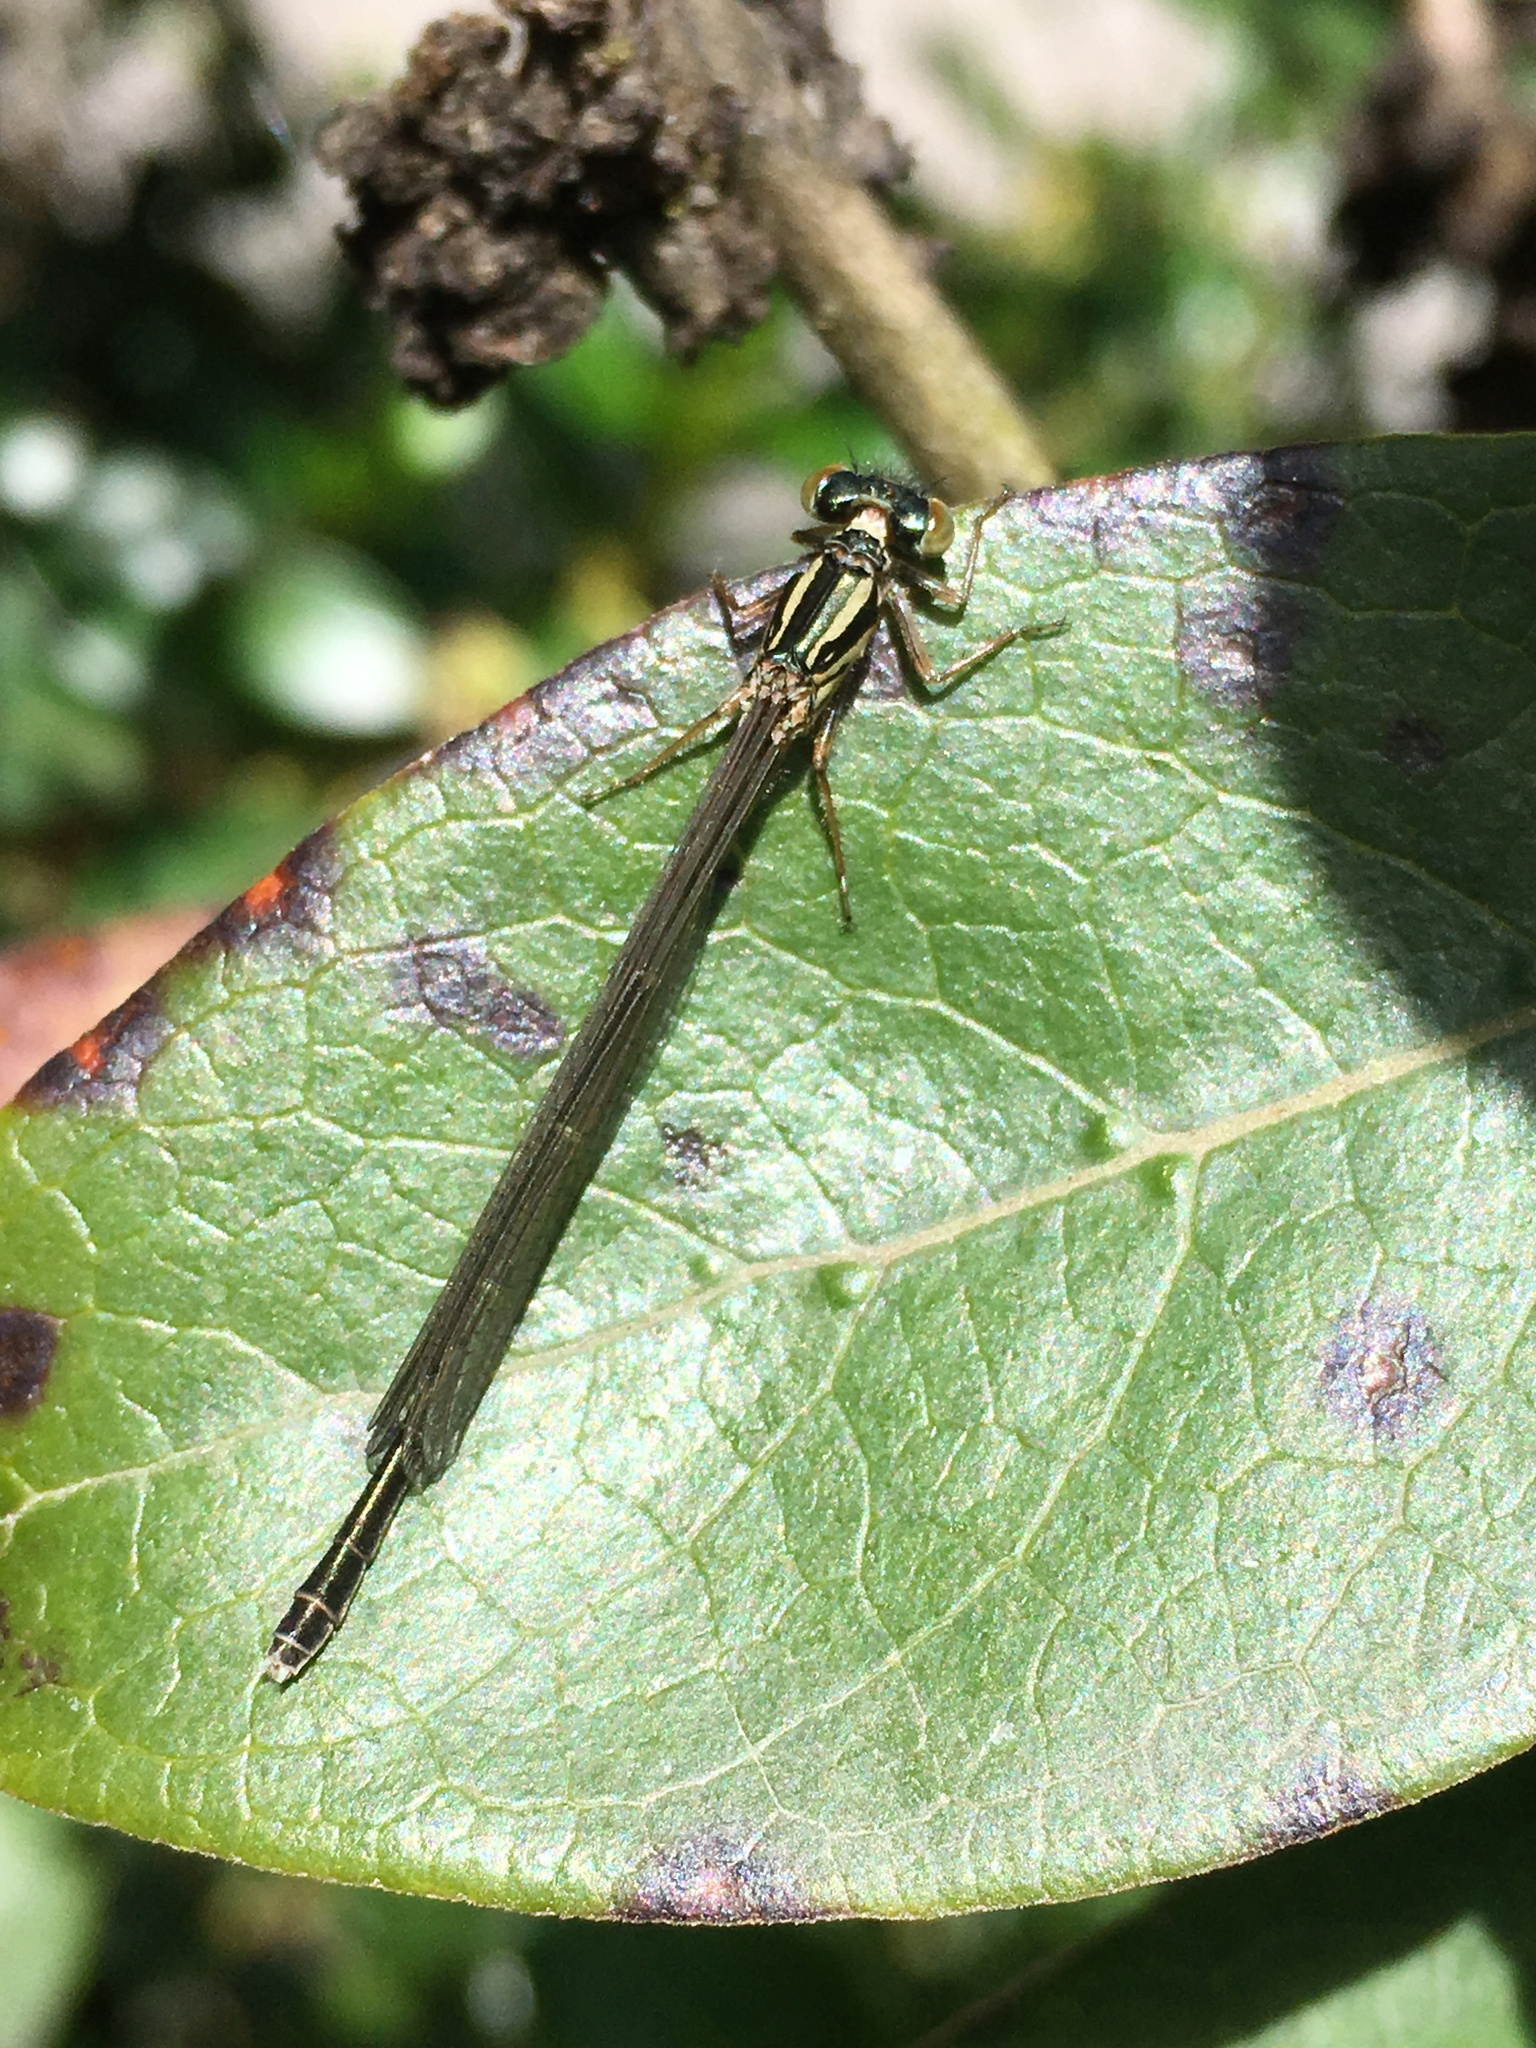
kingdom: Animalia
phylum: Arthropoda
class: Insecta
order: Odonata
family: Coenagrionidae
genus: Xanthocnemis
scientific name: Xanthocnemis zealandica
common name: Common redcoat damselfly
